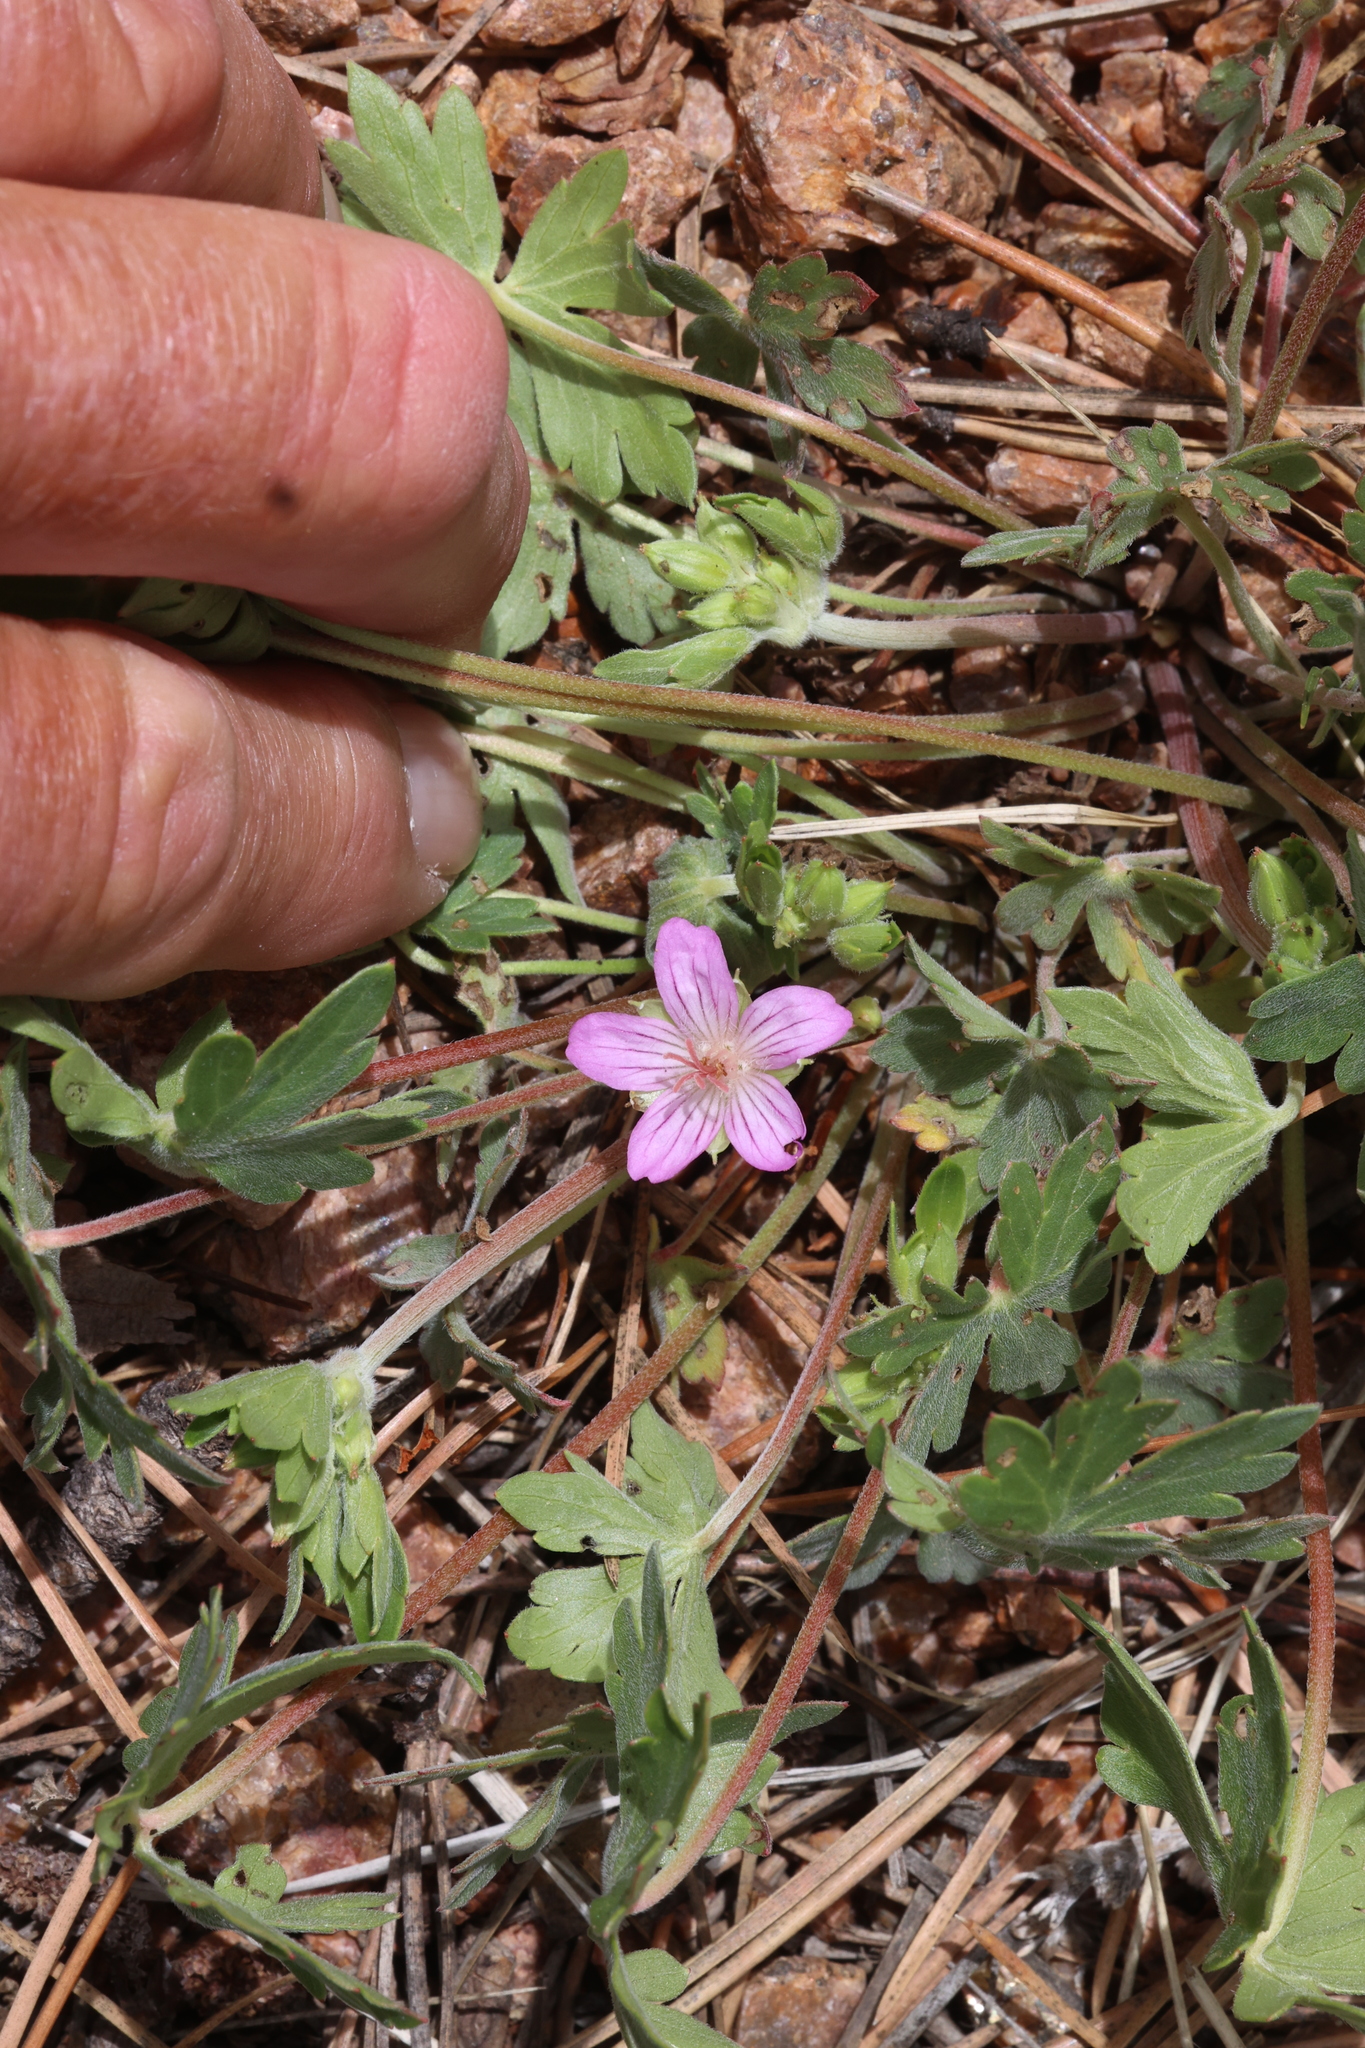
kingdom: Plantae
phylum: Tracheophyta
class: Magnoliopsida
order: Geraniales
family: Geraniaceae
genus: Geranium
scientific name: Geranium caespitosum
